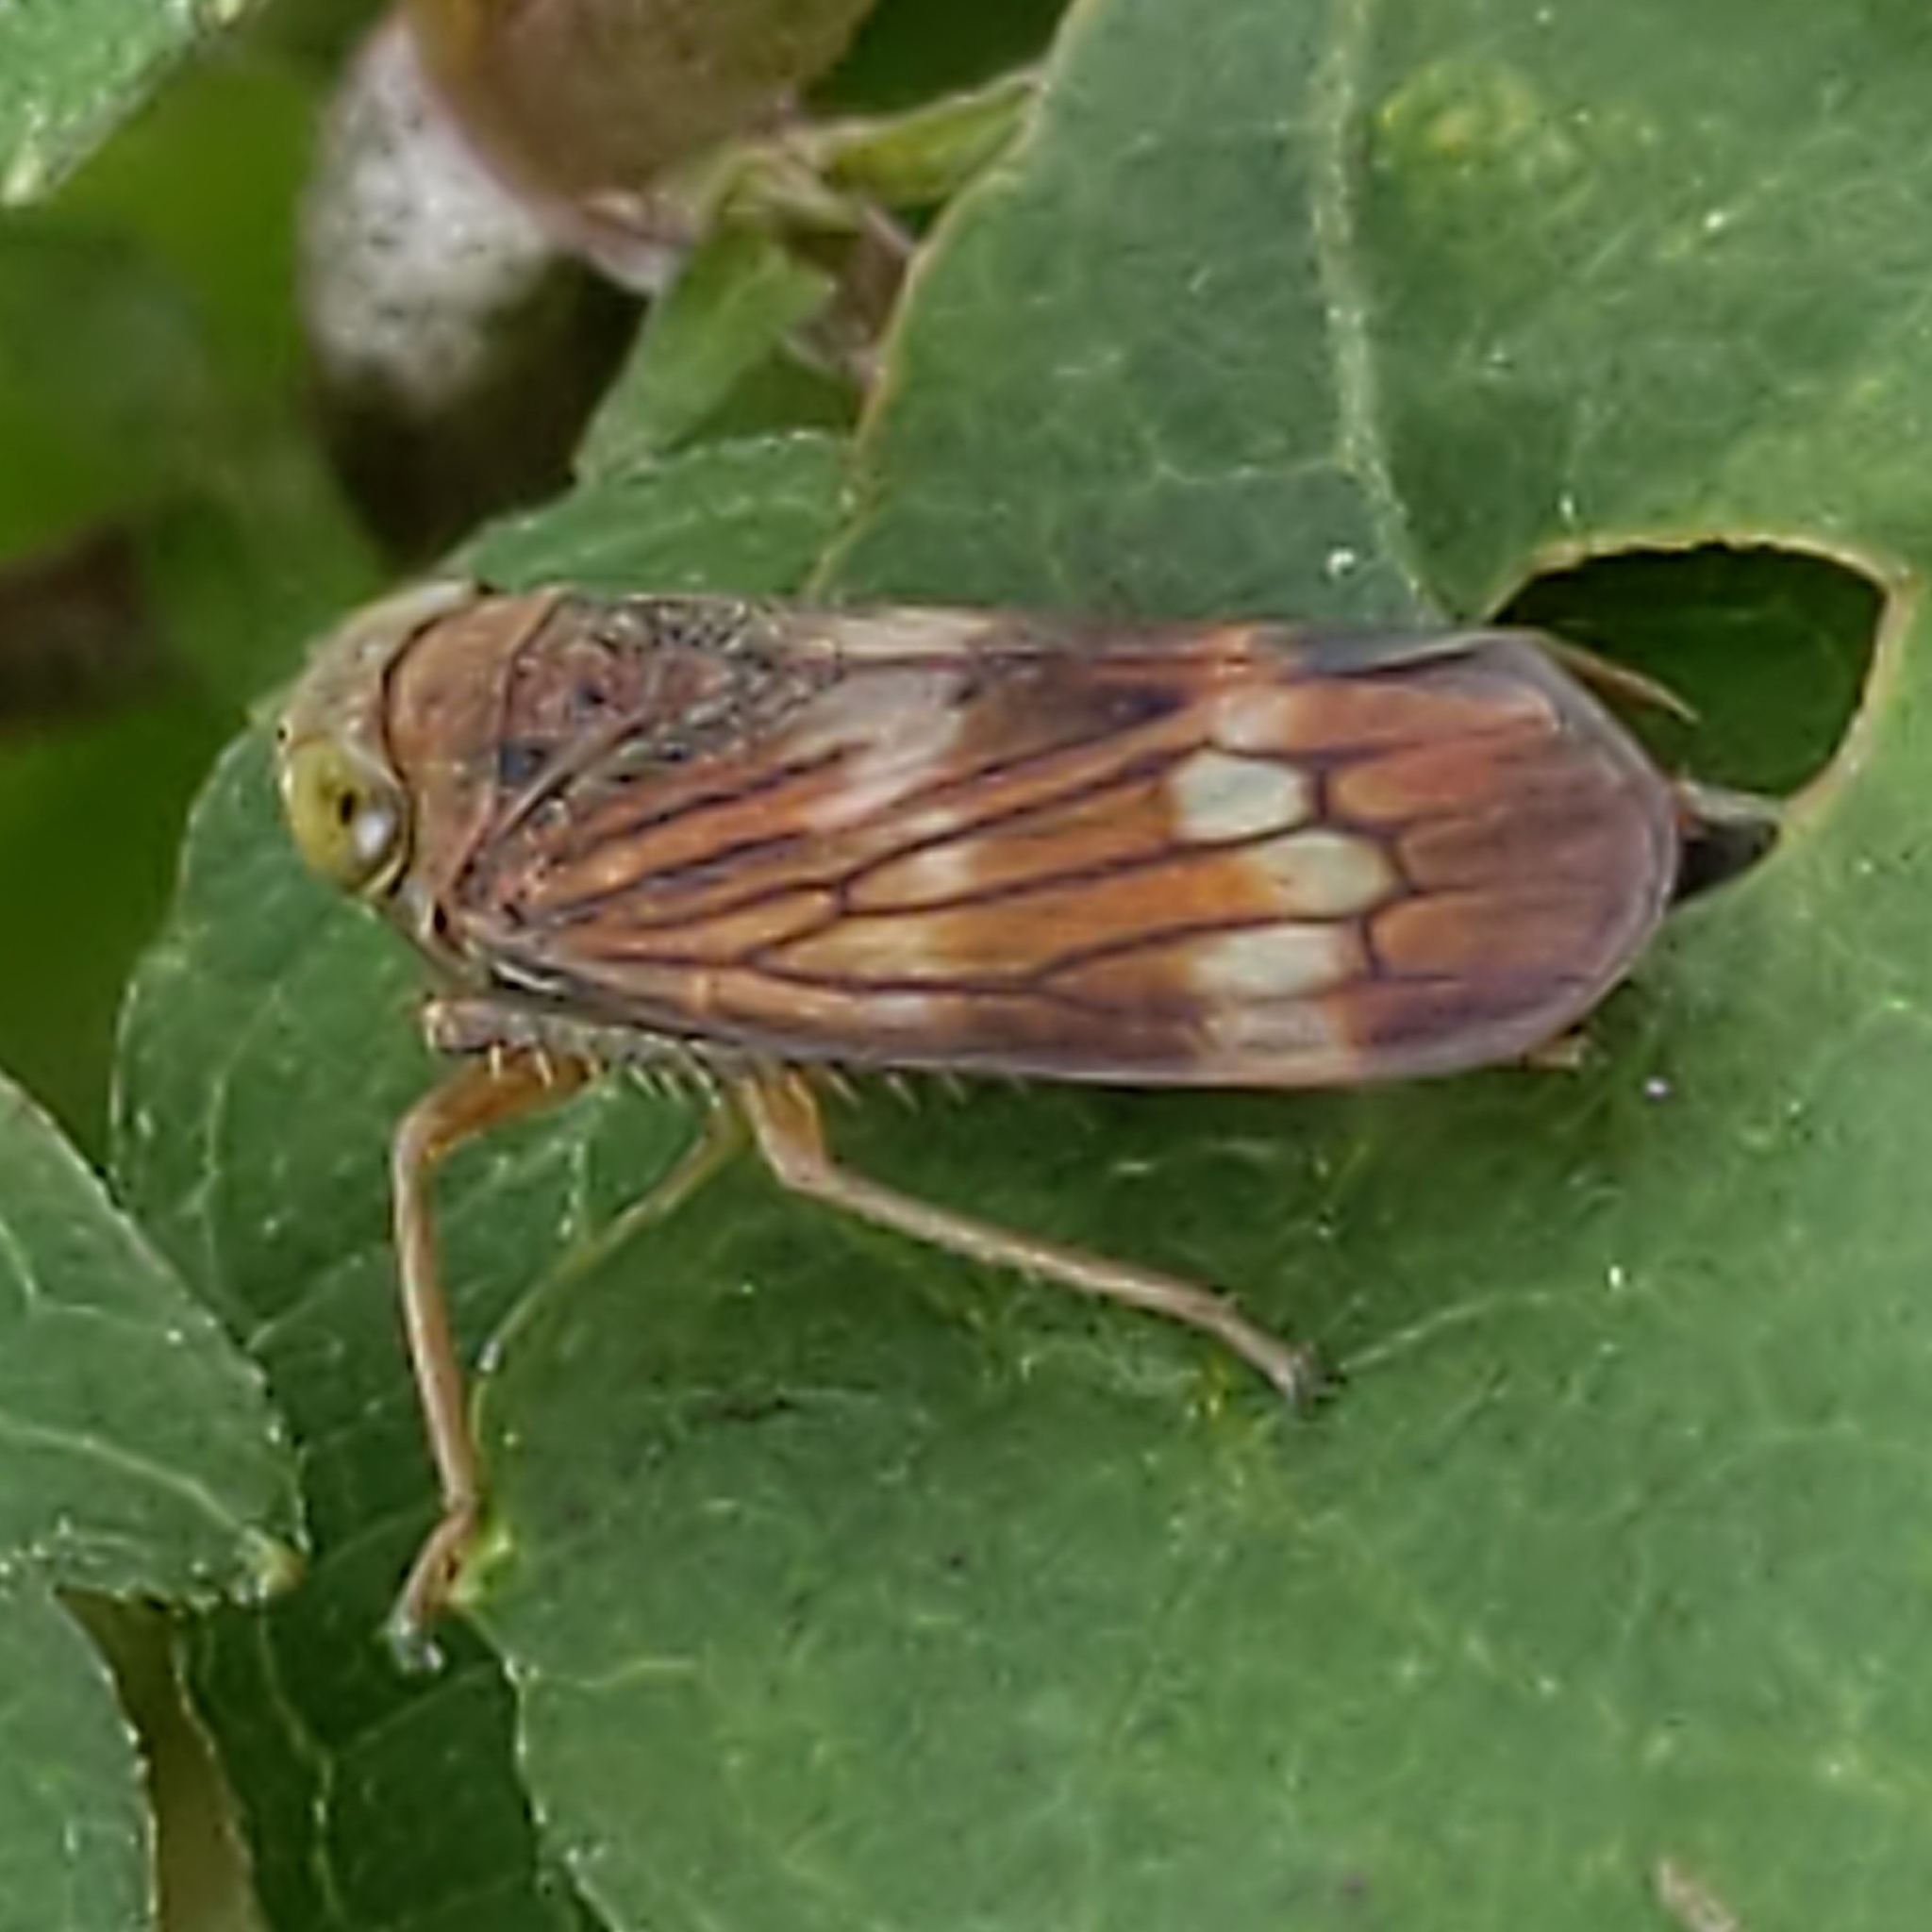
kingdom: Animalia
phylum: Arthropoda
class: Insecta
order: Hemiptera
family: Cicadellidae
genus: Jikradia
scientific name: Jikradia olitoria
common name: Coppery leafhopper
